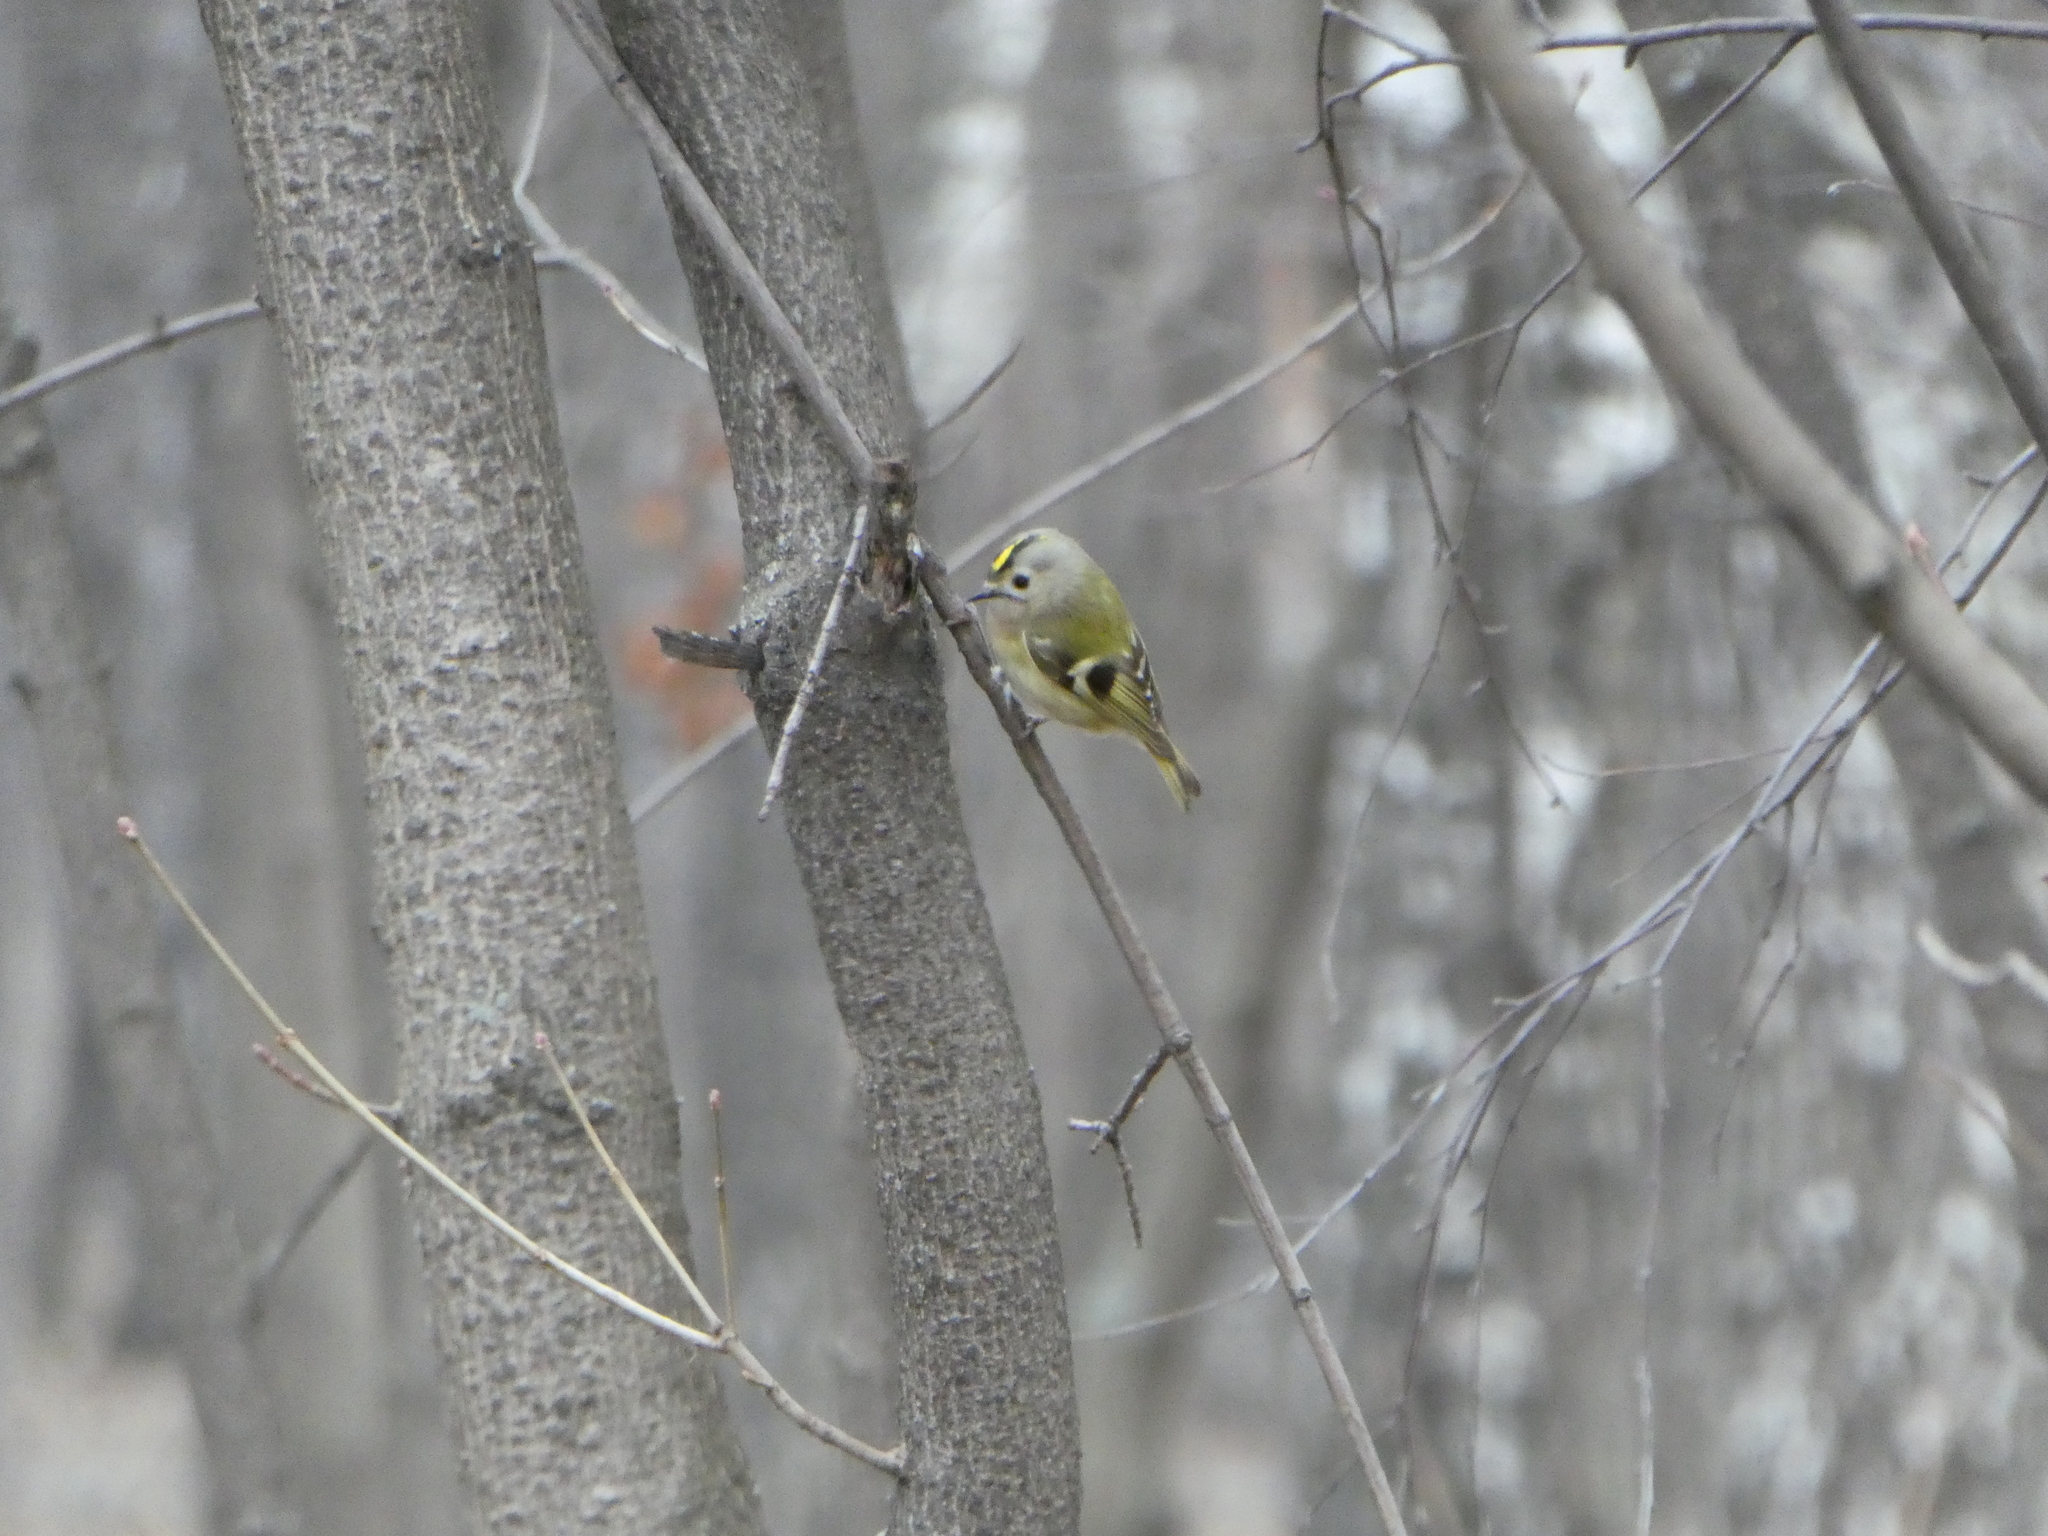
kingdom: Animalia
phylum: Chordata
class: Aves
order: Passeriformes
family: Regulidae
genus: Regulus
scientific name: Regulus regulus
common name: Goldcrest
